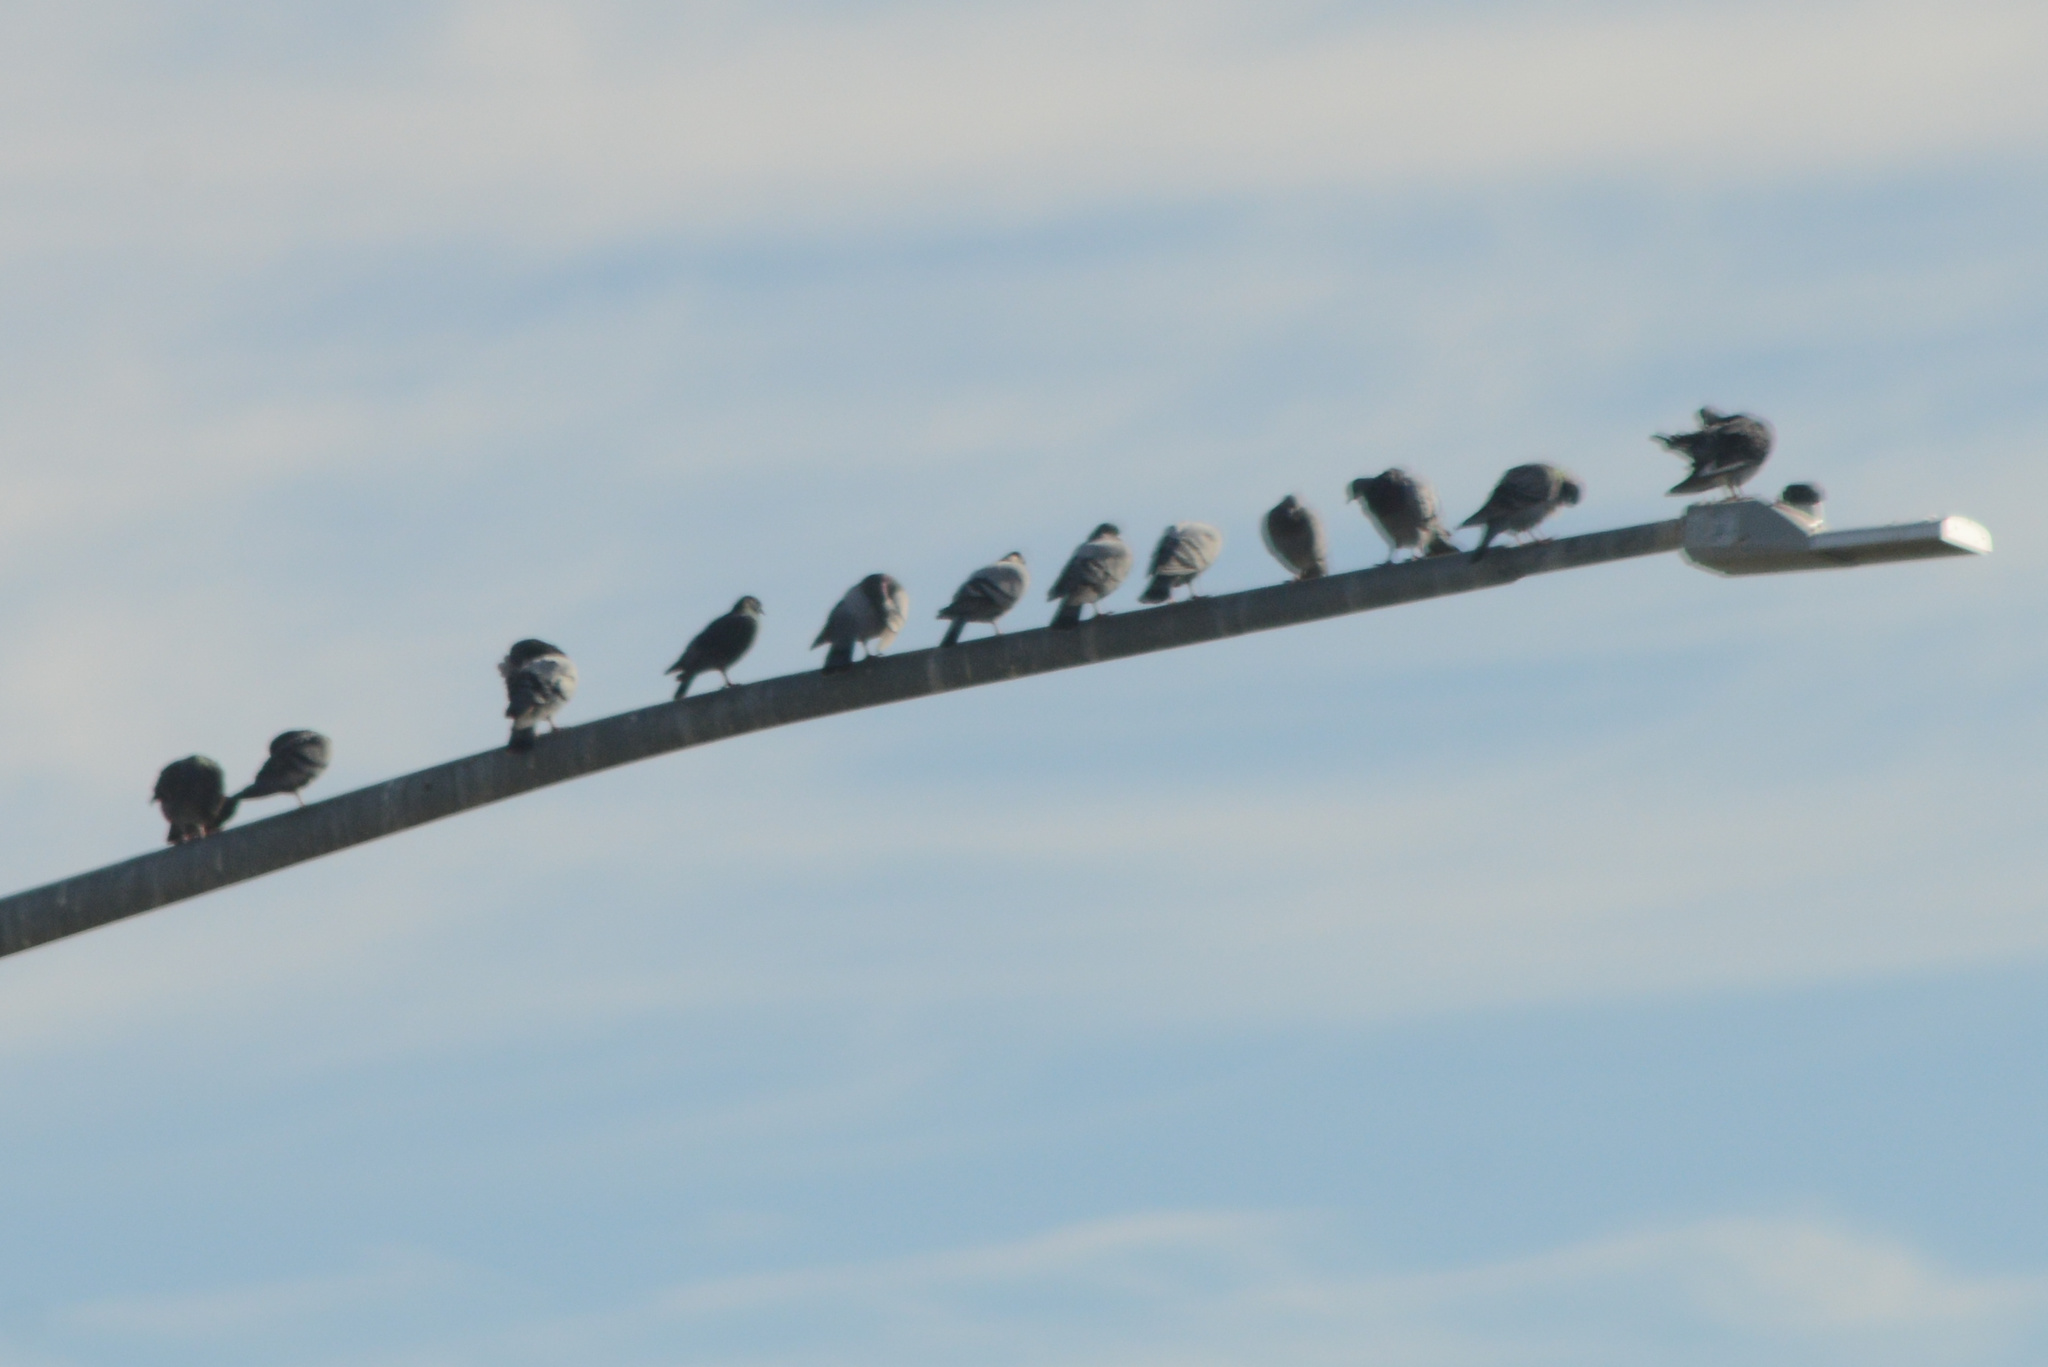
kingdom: Animalia
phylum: Chordata
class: Aves
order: Columbiformes
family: Columbidae
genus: Columba
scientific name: Columba livia
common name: Rock pigeon
